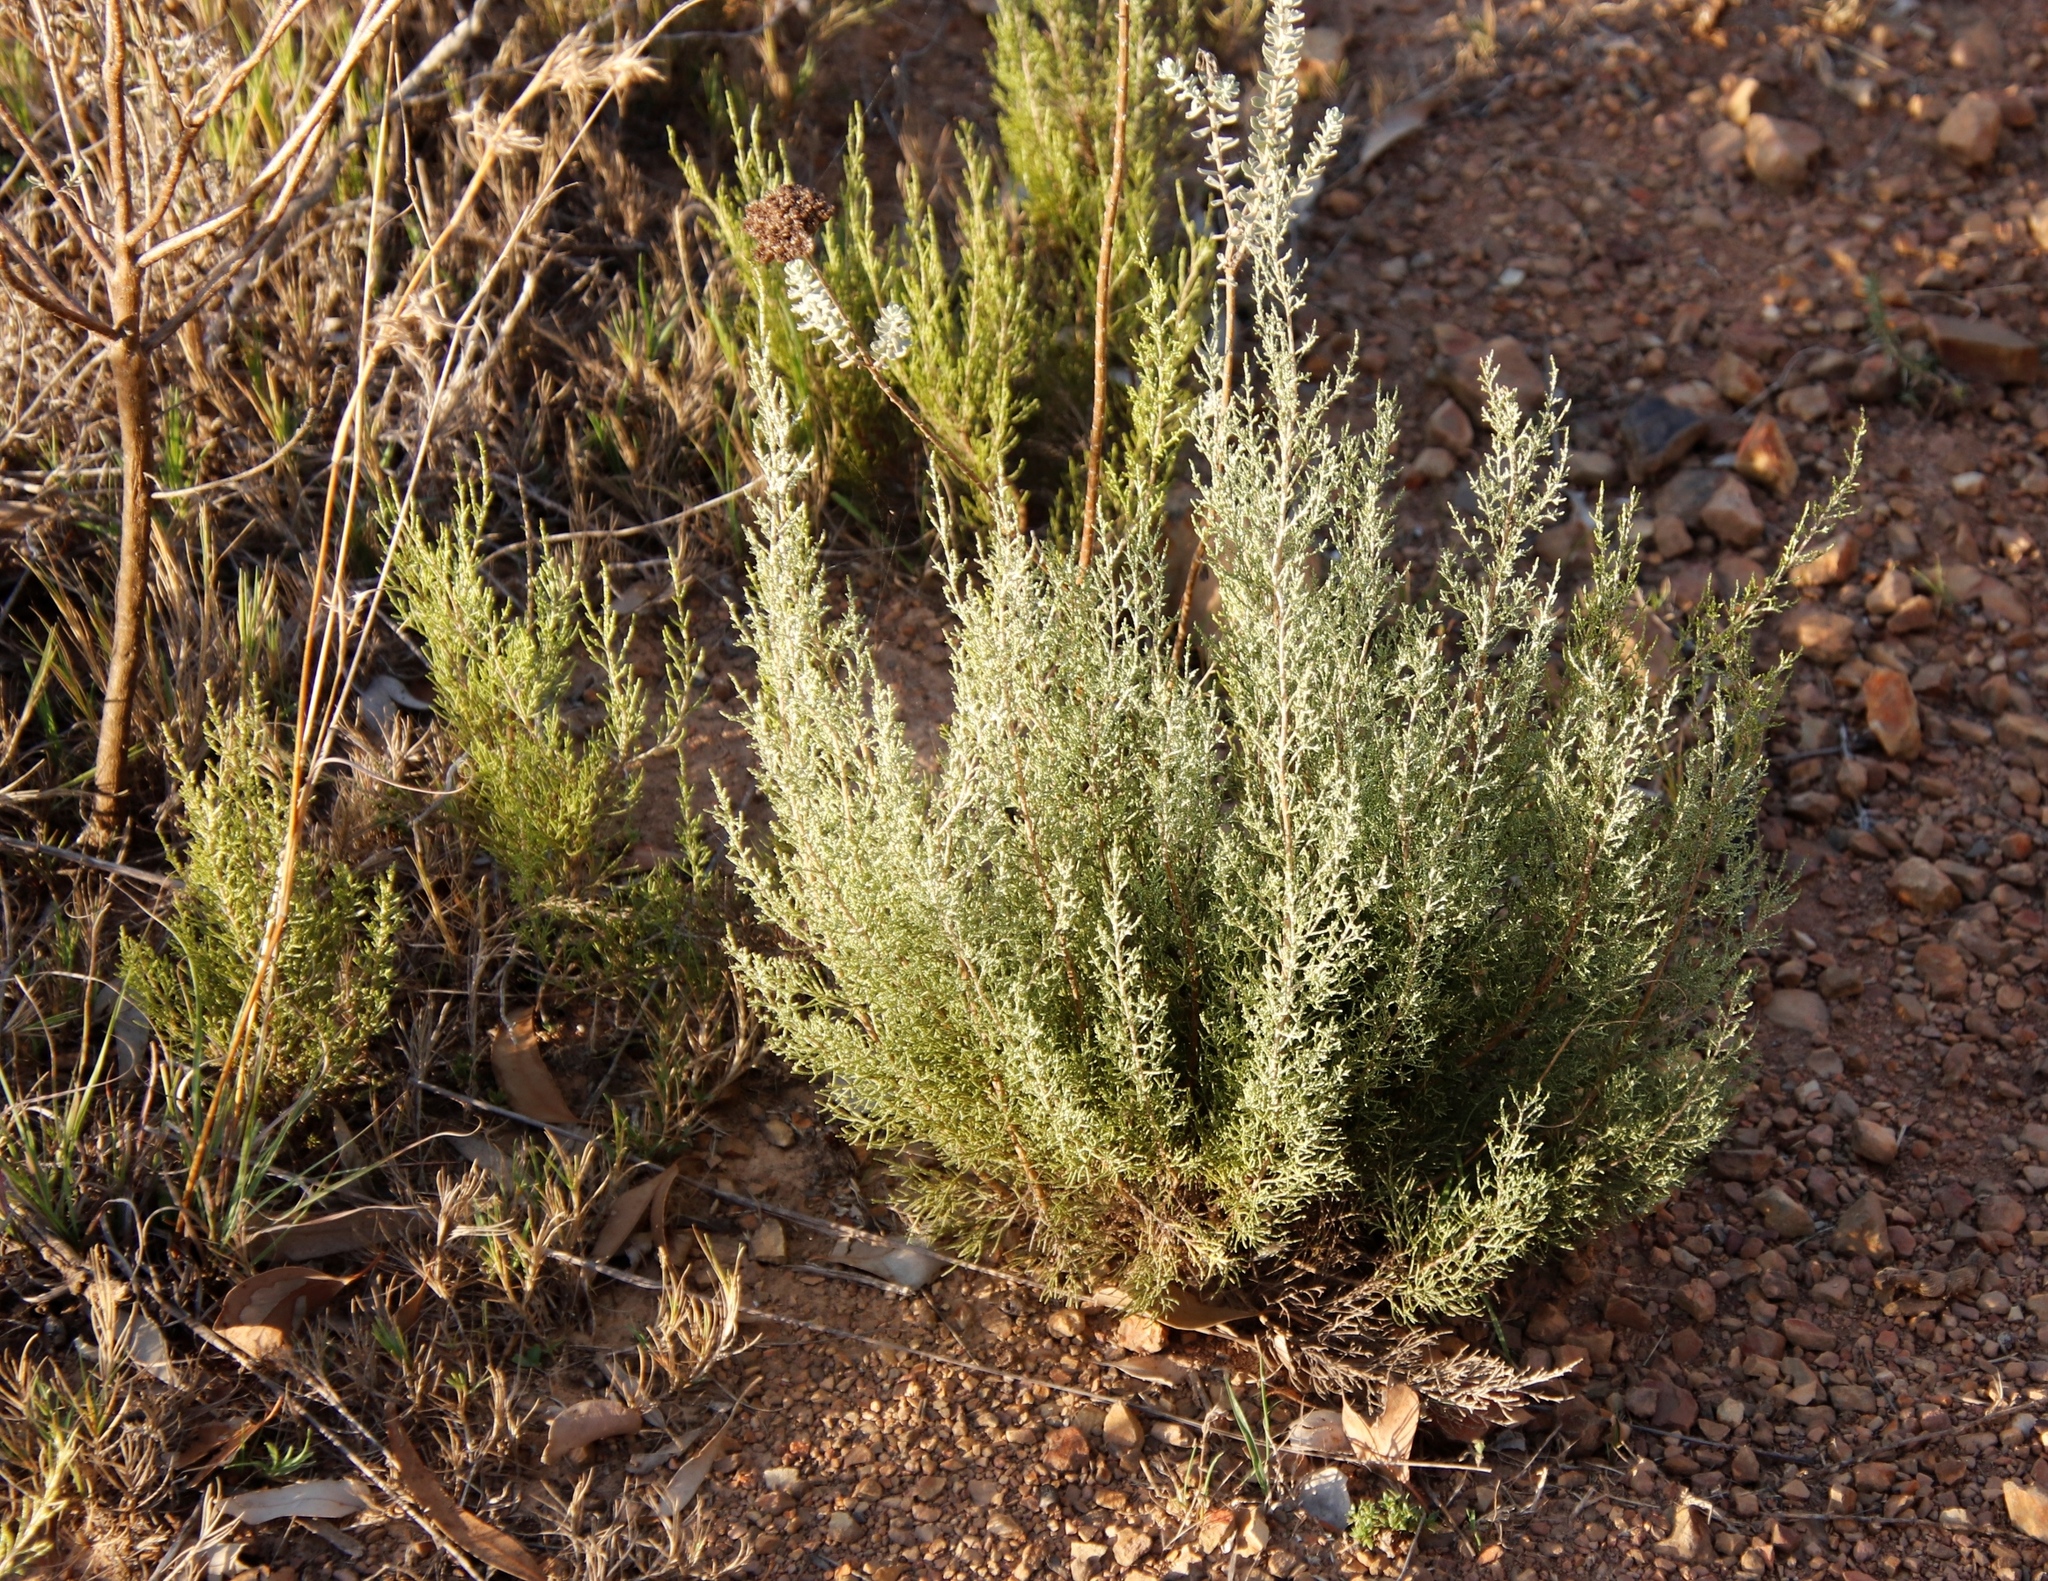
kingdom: Plantae
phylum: Tracheophyta
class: Magnoliopsida
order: Asterales
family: Asteraceae
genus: Dicerothamnus
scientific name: Dicerothamnus rhinocerotis
